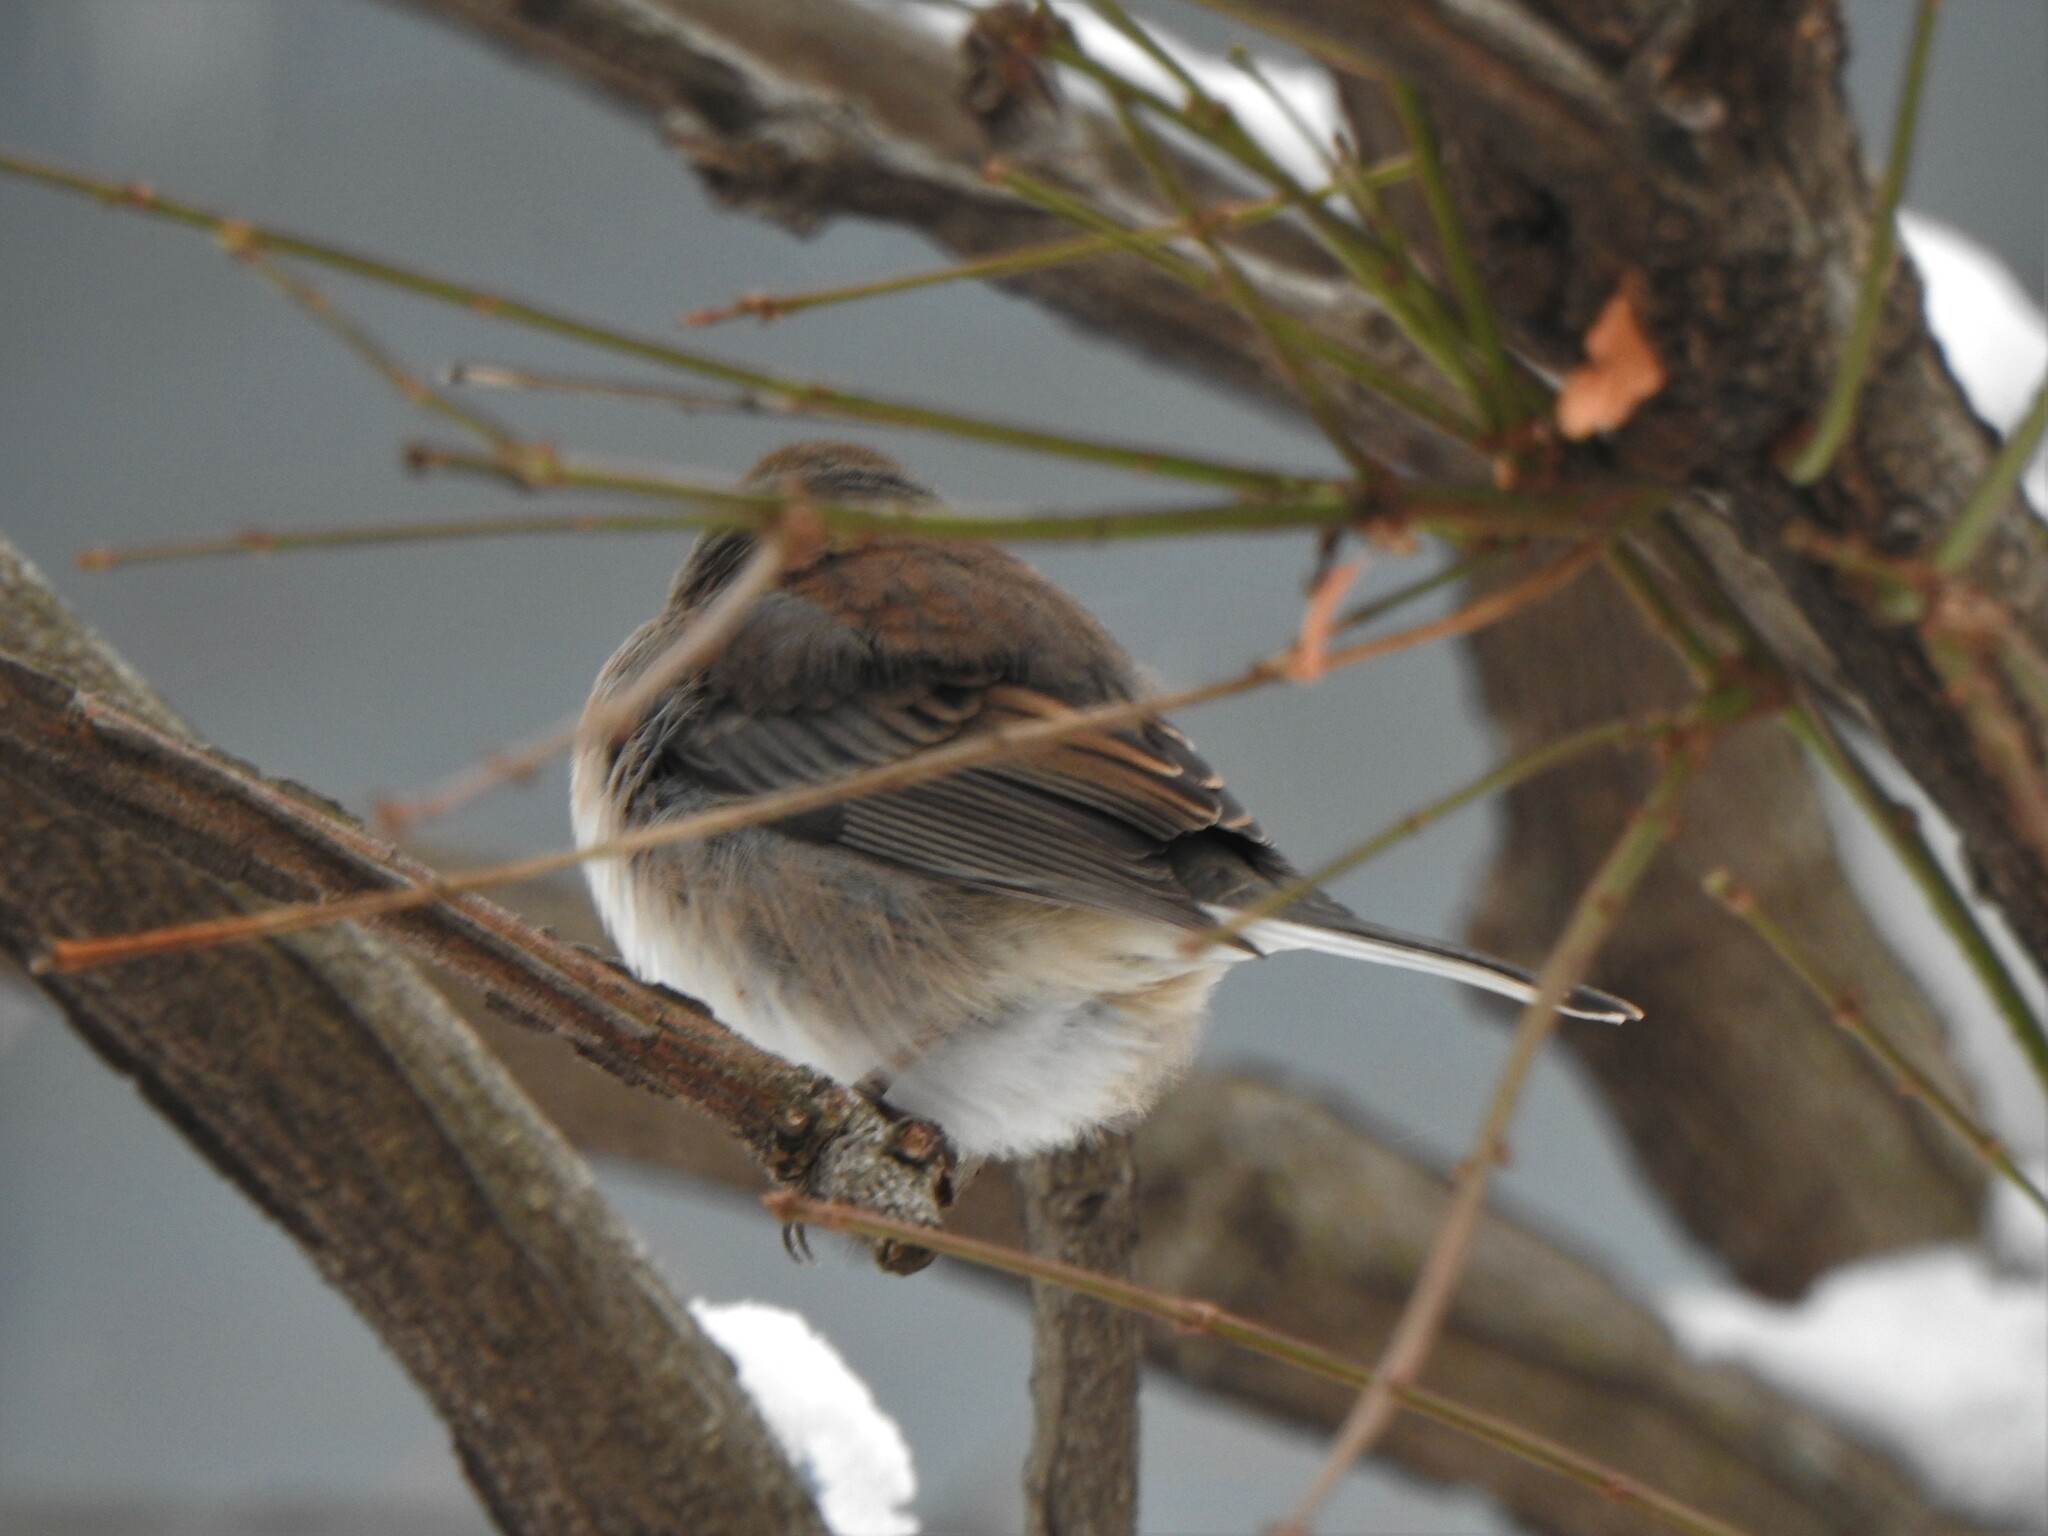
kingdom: Animalia
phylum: Chordata
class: Aves
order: Passeriformes
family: Passerellidae
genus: Junco
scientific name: Junco hyemalis
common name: Dark-eyed junco
